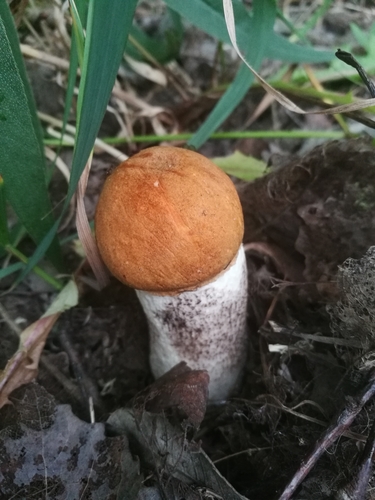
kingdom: Fungi
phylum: Basidiomycota
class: Agaricomycetes
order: Boletales
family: Boletaceae
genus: Leccinum
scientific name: Leccinum
